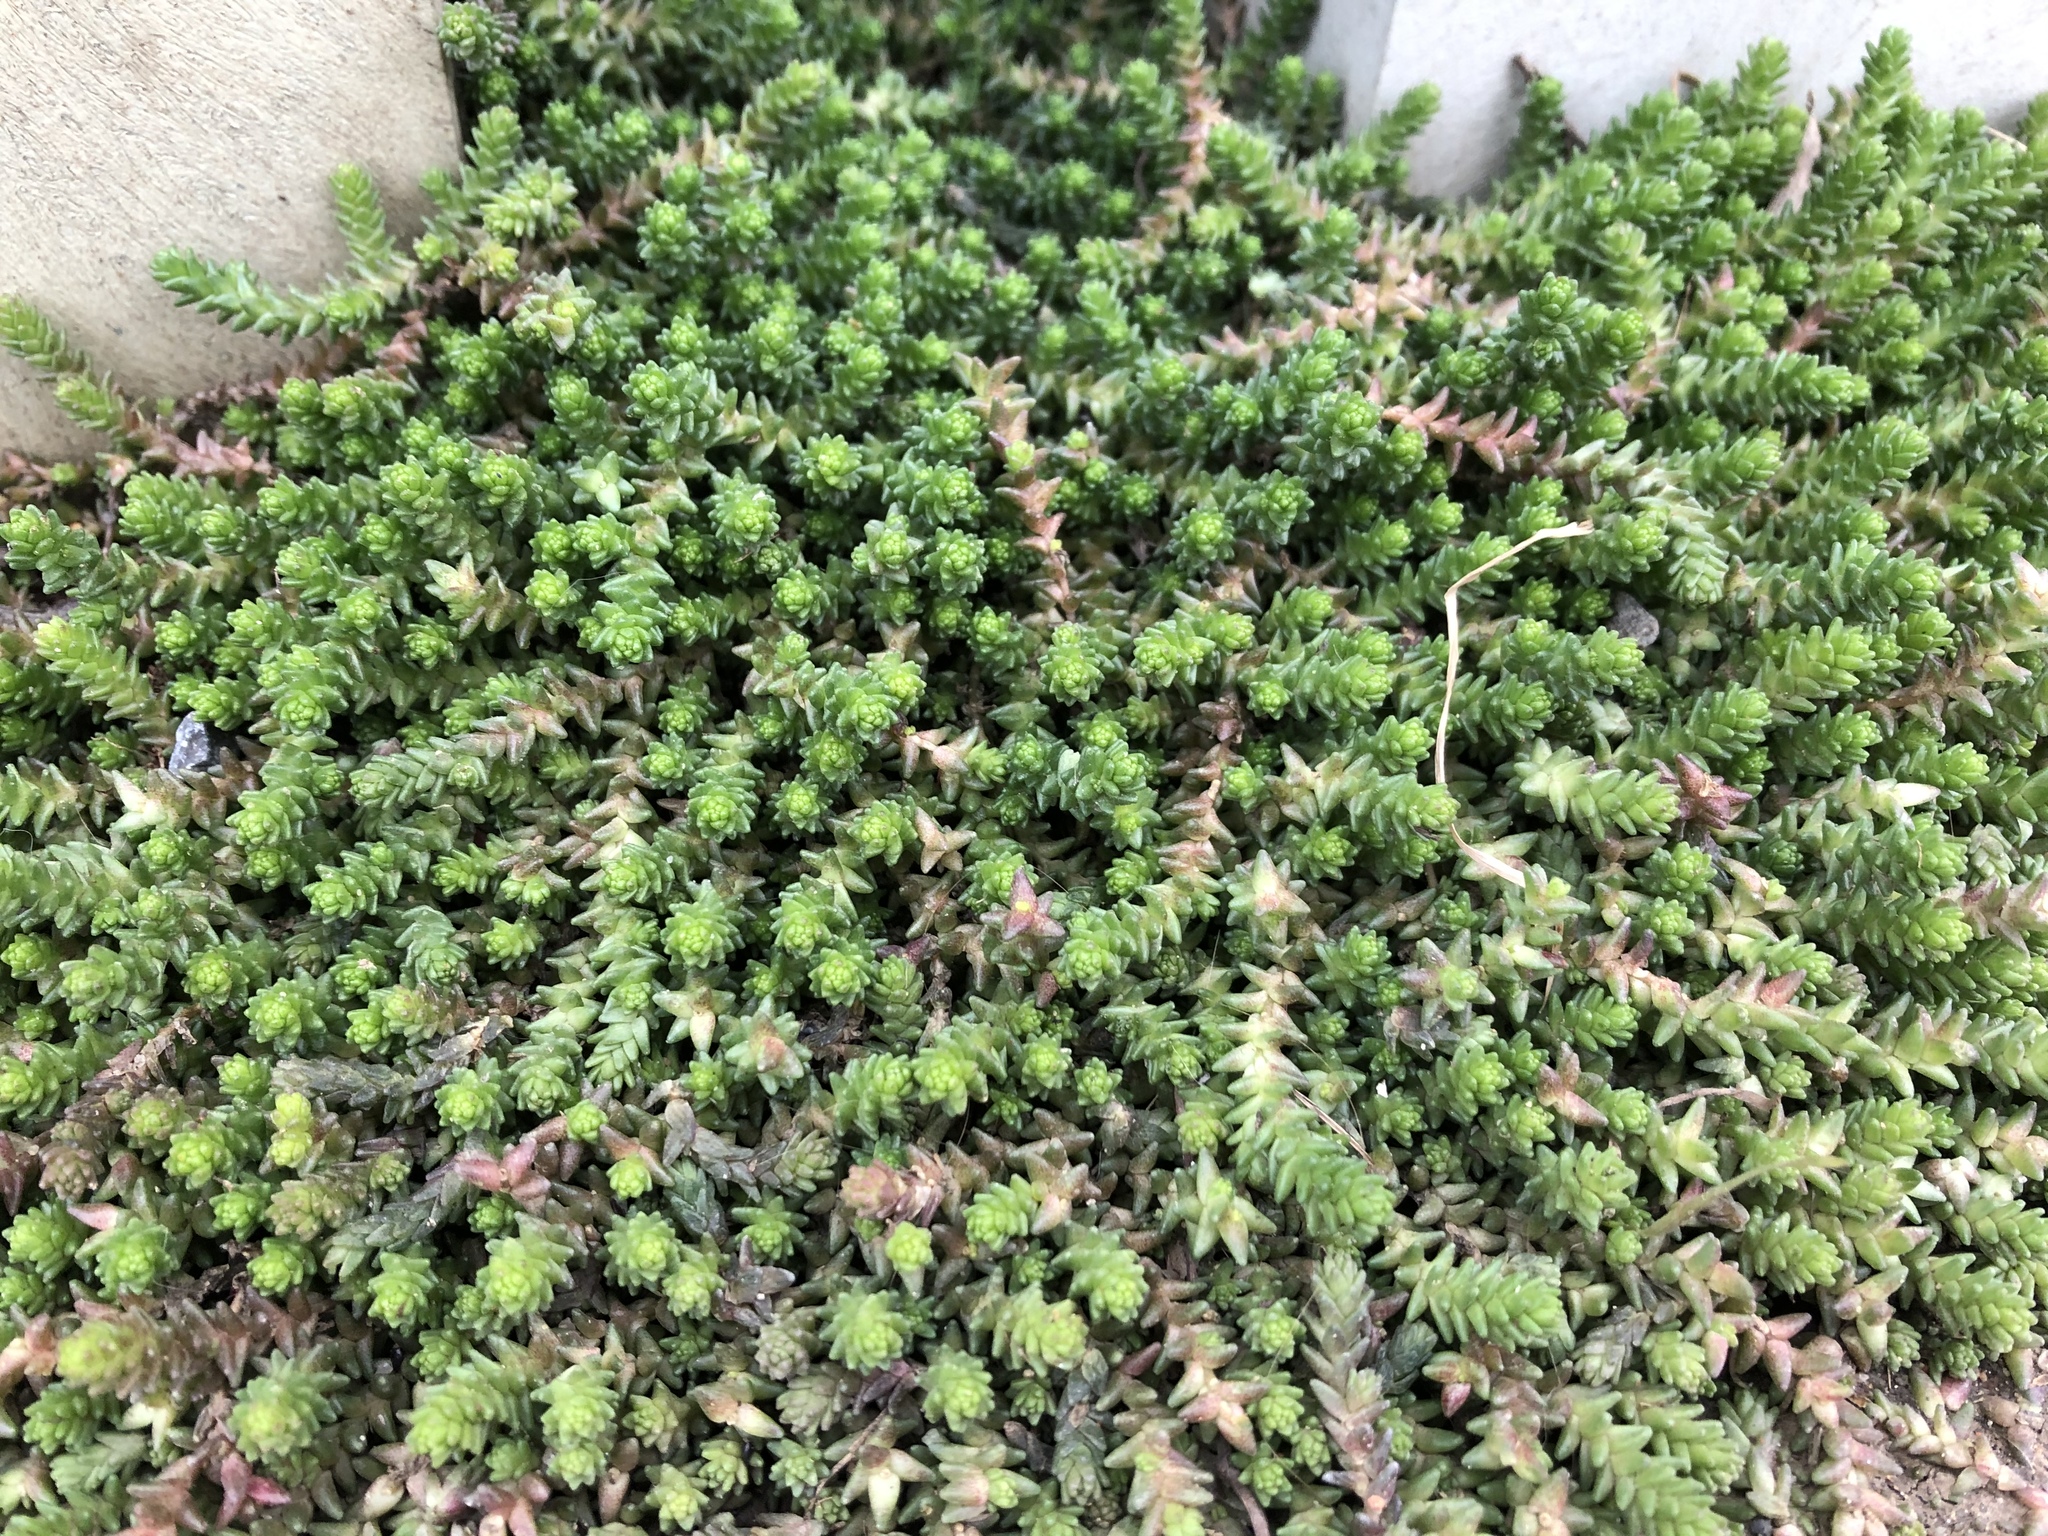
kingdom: Plantae
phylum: Tracheophyta
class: Magnoliopsida
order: Saxifragales
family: Crassulaceae
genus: Sedum
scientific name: Sedum acre
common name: Biting stonecrop
